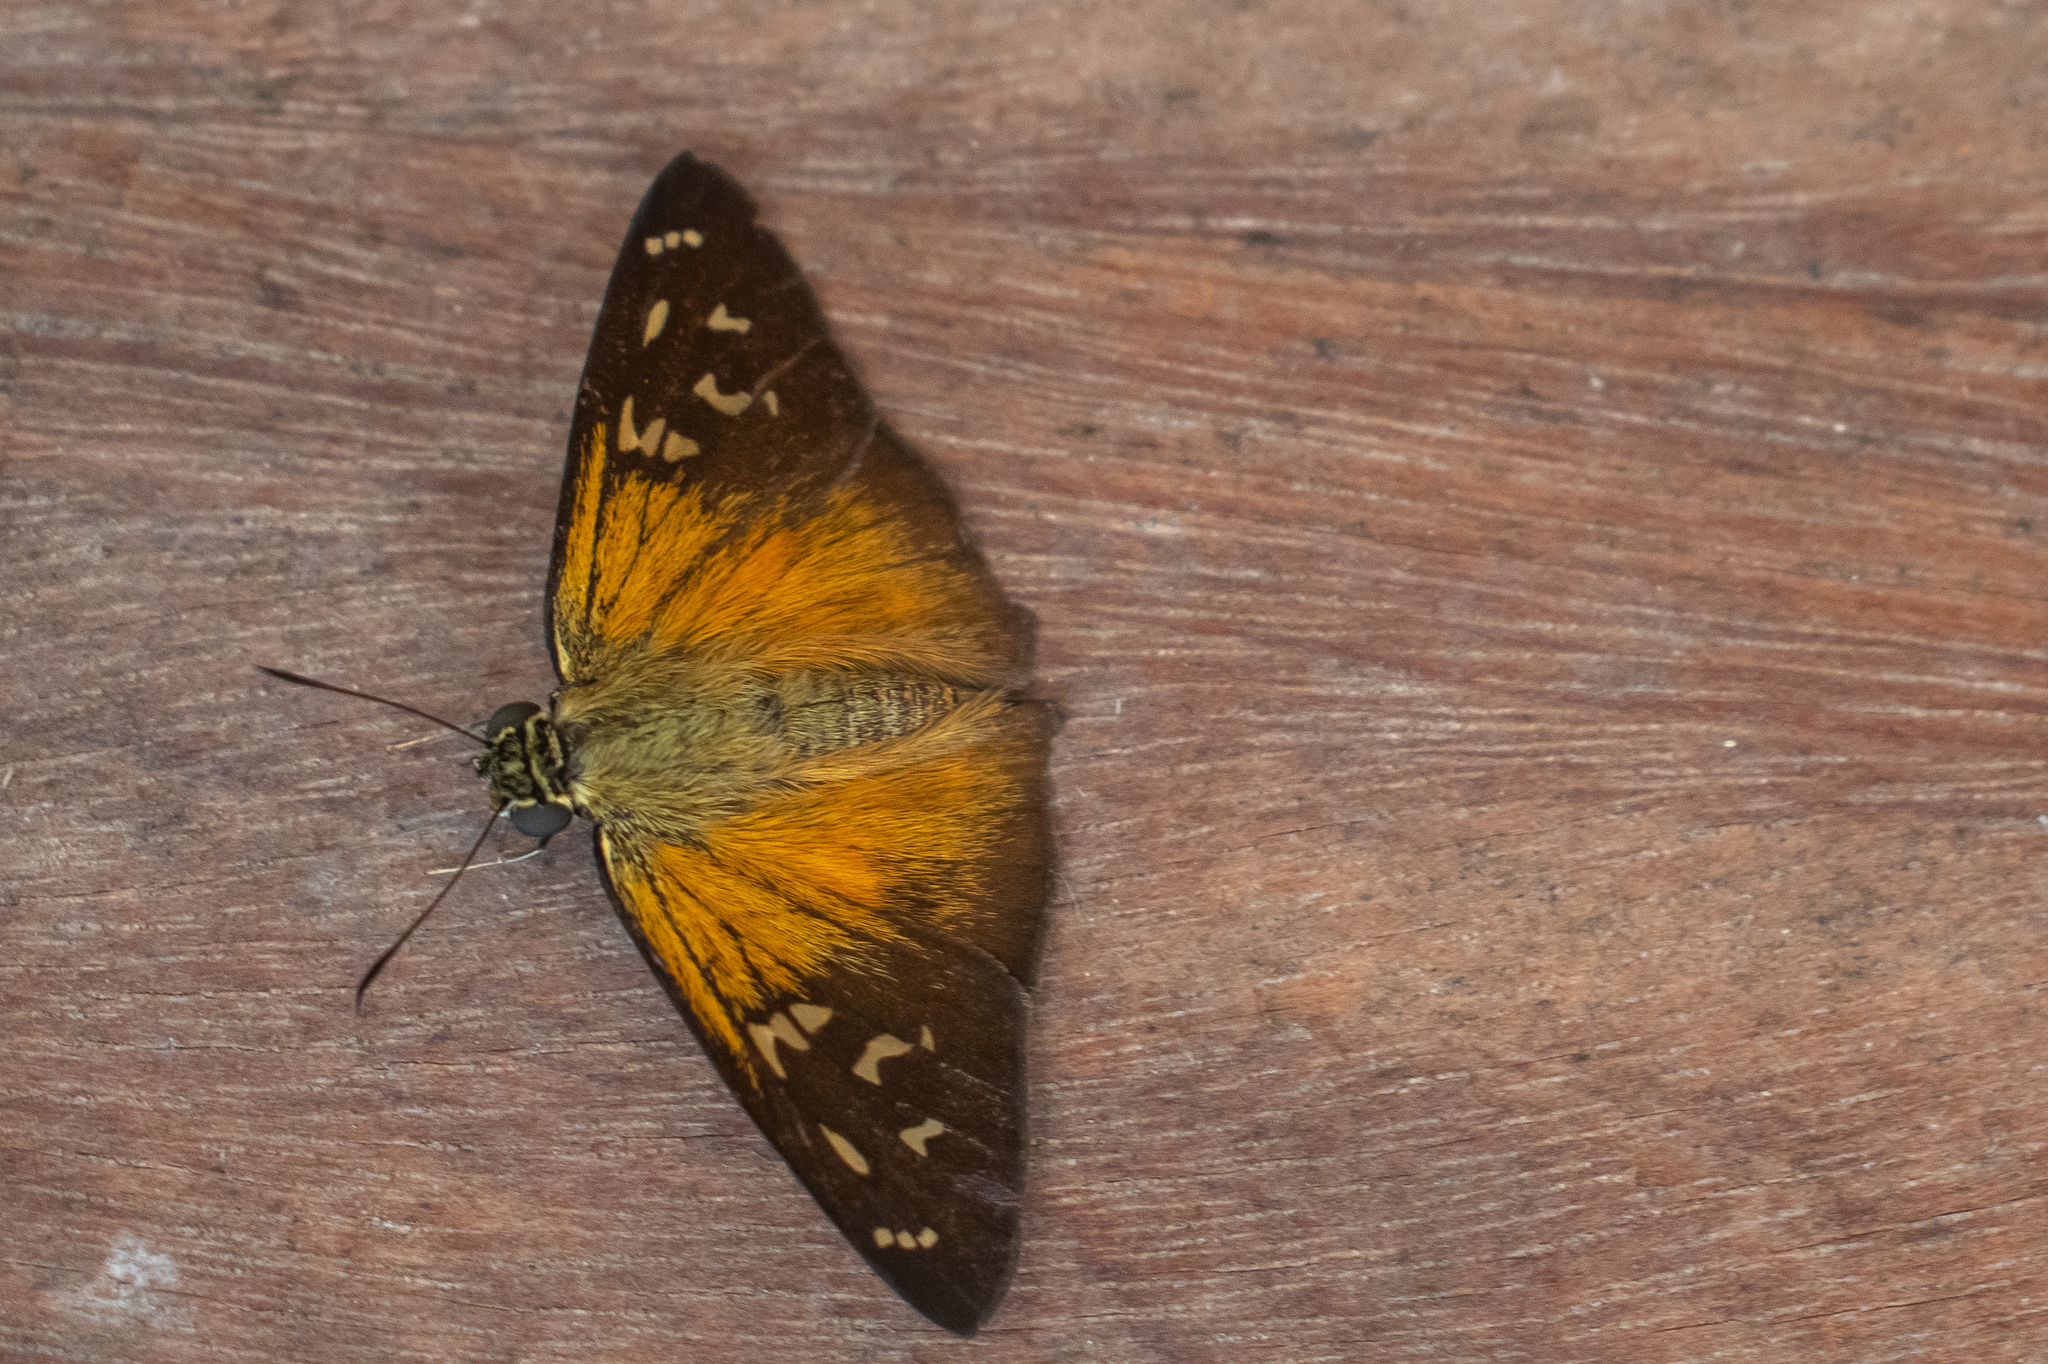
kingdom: Animalia
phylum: Arthropoda
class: Insecta
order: Lepidoptera
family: Hesperiidae
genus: Augiades
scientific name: Augiades crinisus
